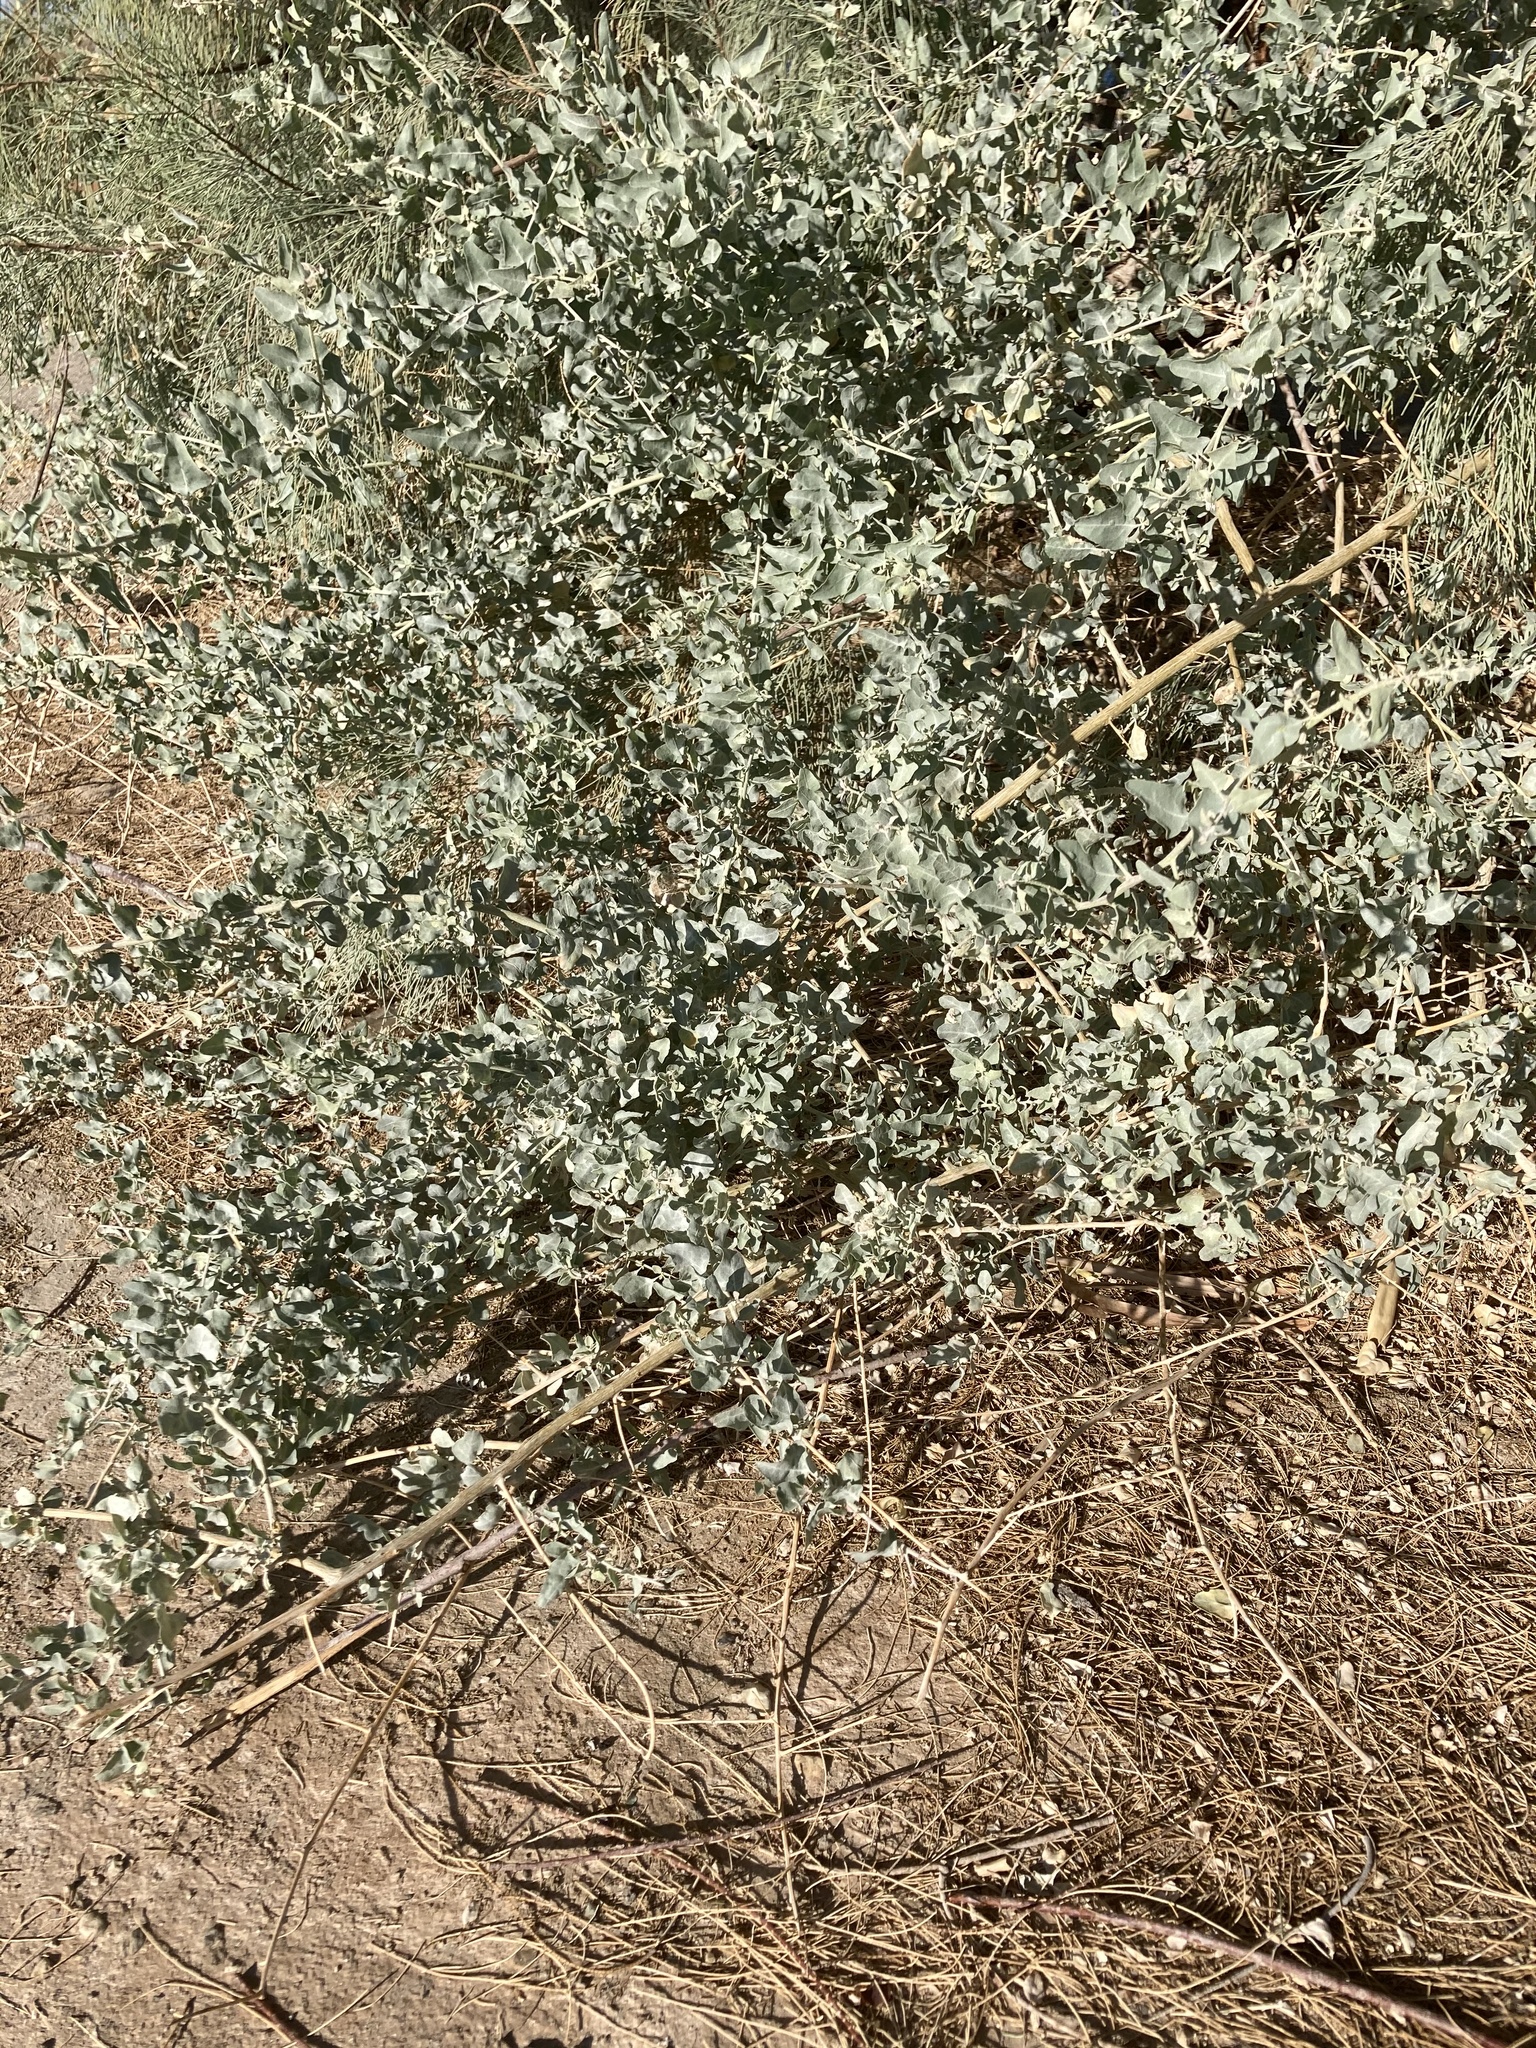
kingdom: Plantae
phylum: Tracheophyta
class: Magnoliopsida
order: Caryophyllales
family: Amaranthaceae
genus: Atriplex
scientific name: Atriplex lentiformis
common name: Big saltbush
